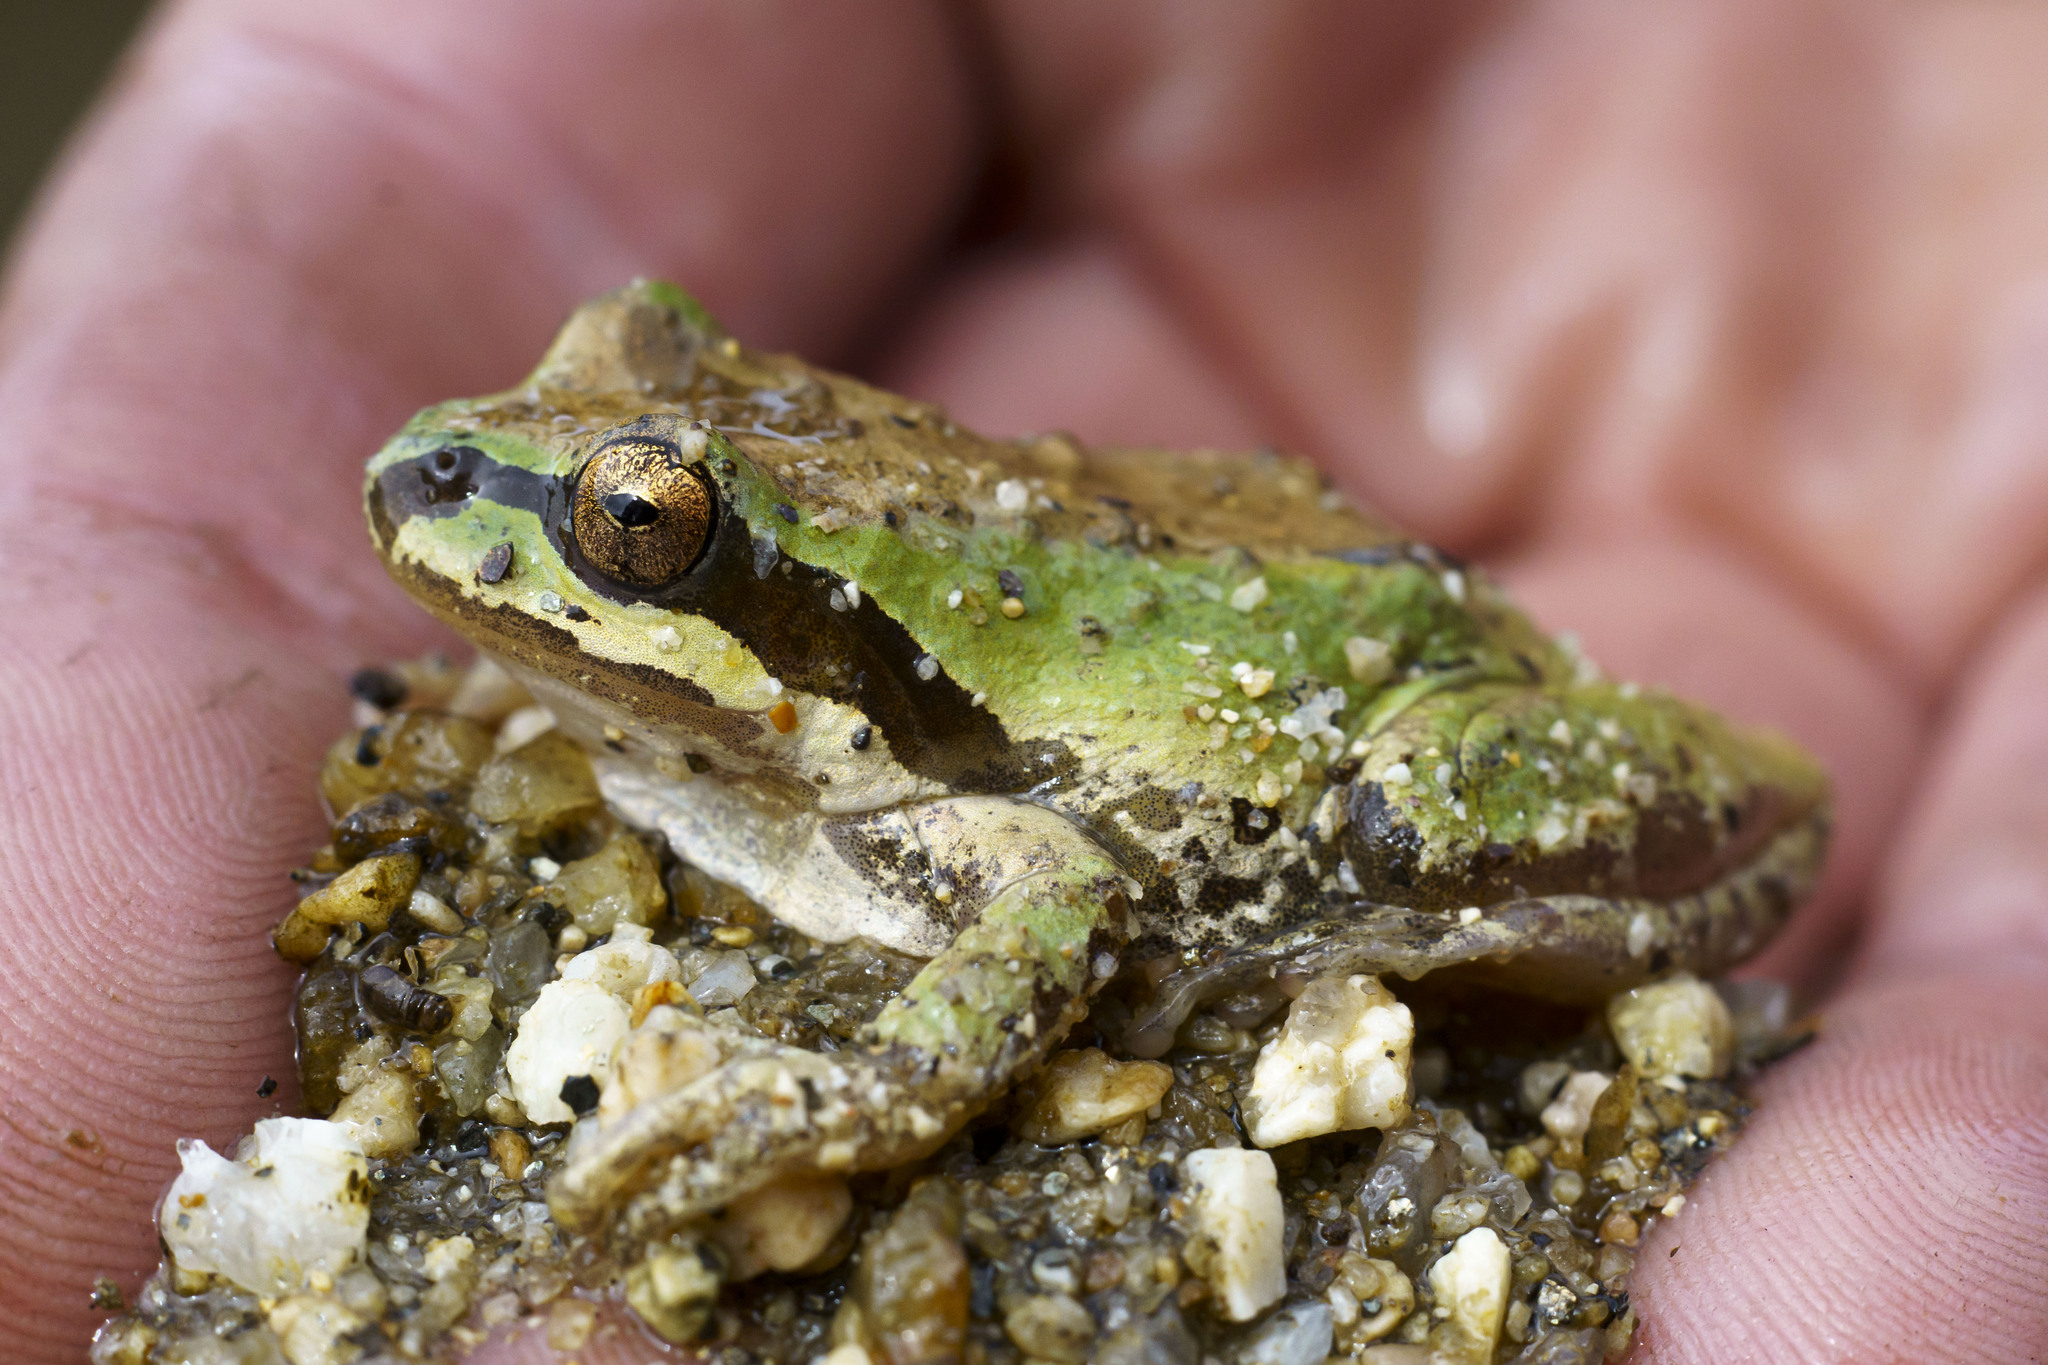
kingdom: Animalia
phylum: Chordata
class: Amphibia
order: Anura
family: Hylidae
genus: Pseudacris
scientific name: Pseudacris regilla
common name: Pacific chorus frog
